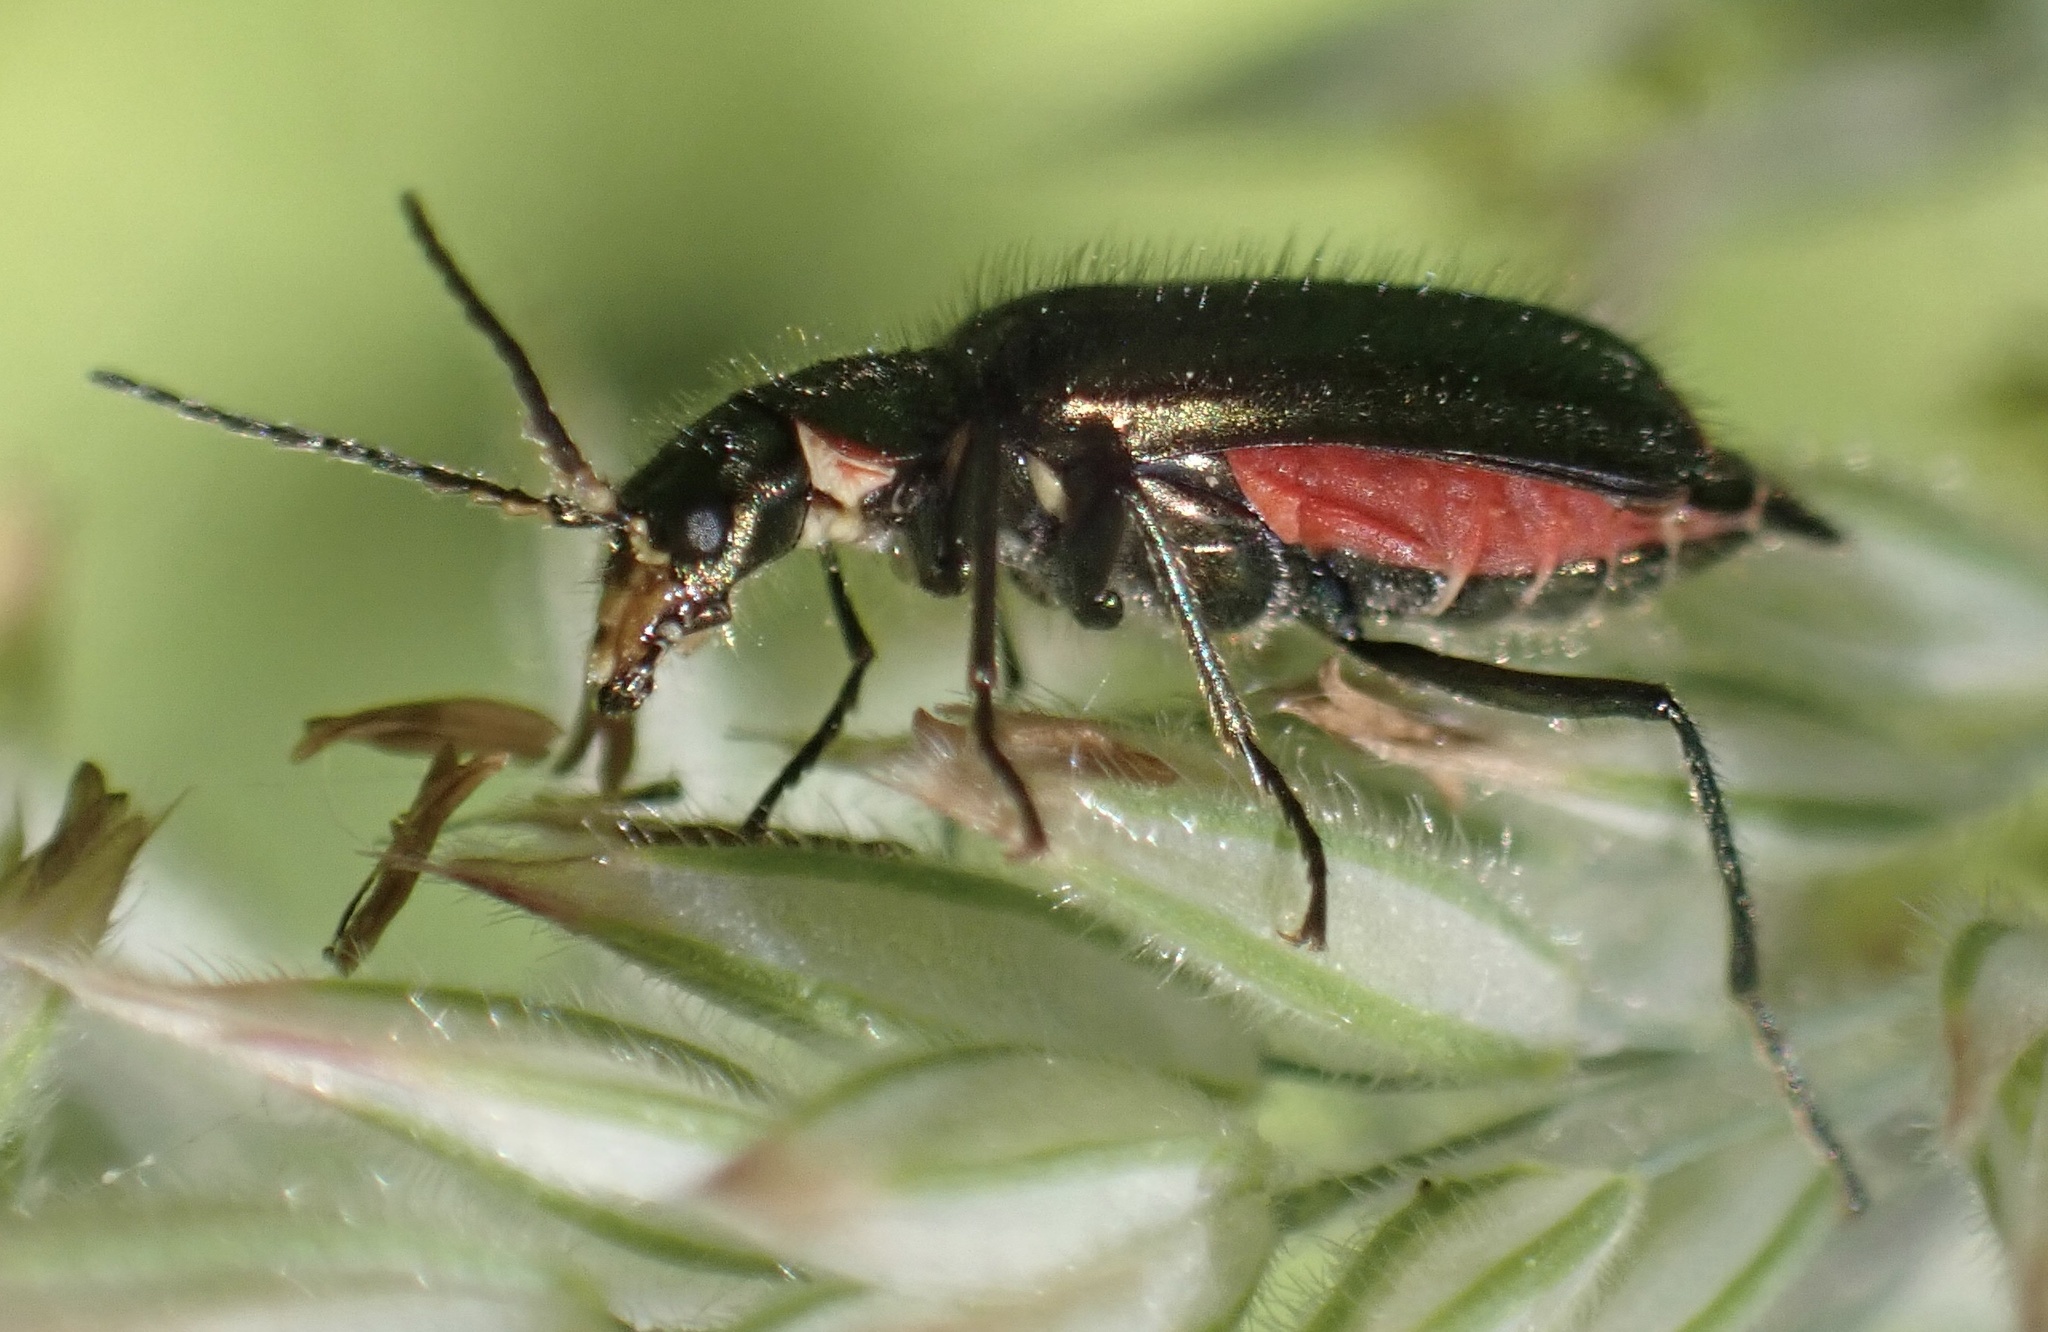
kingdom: Animalia
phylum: Arthropoda
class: Insecta
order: Coleoptera
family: Melyridae
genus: Malachius
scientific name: Malachius bipustulatus
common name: Malachite beetle
